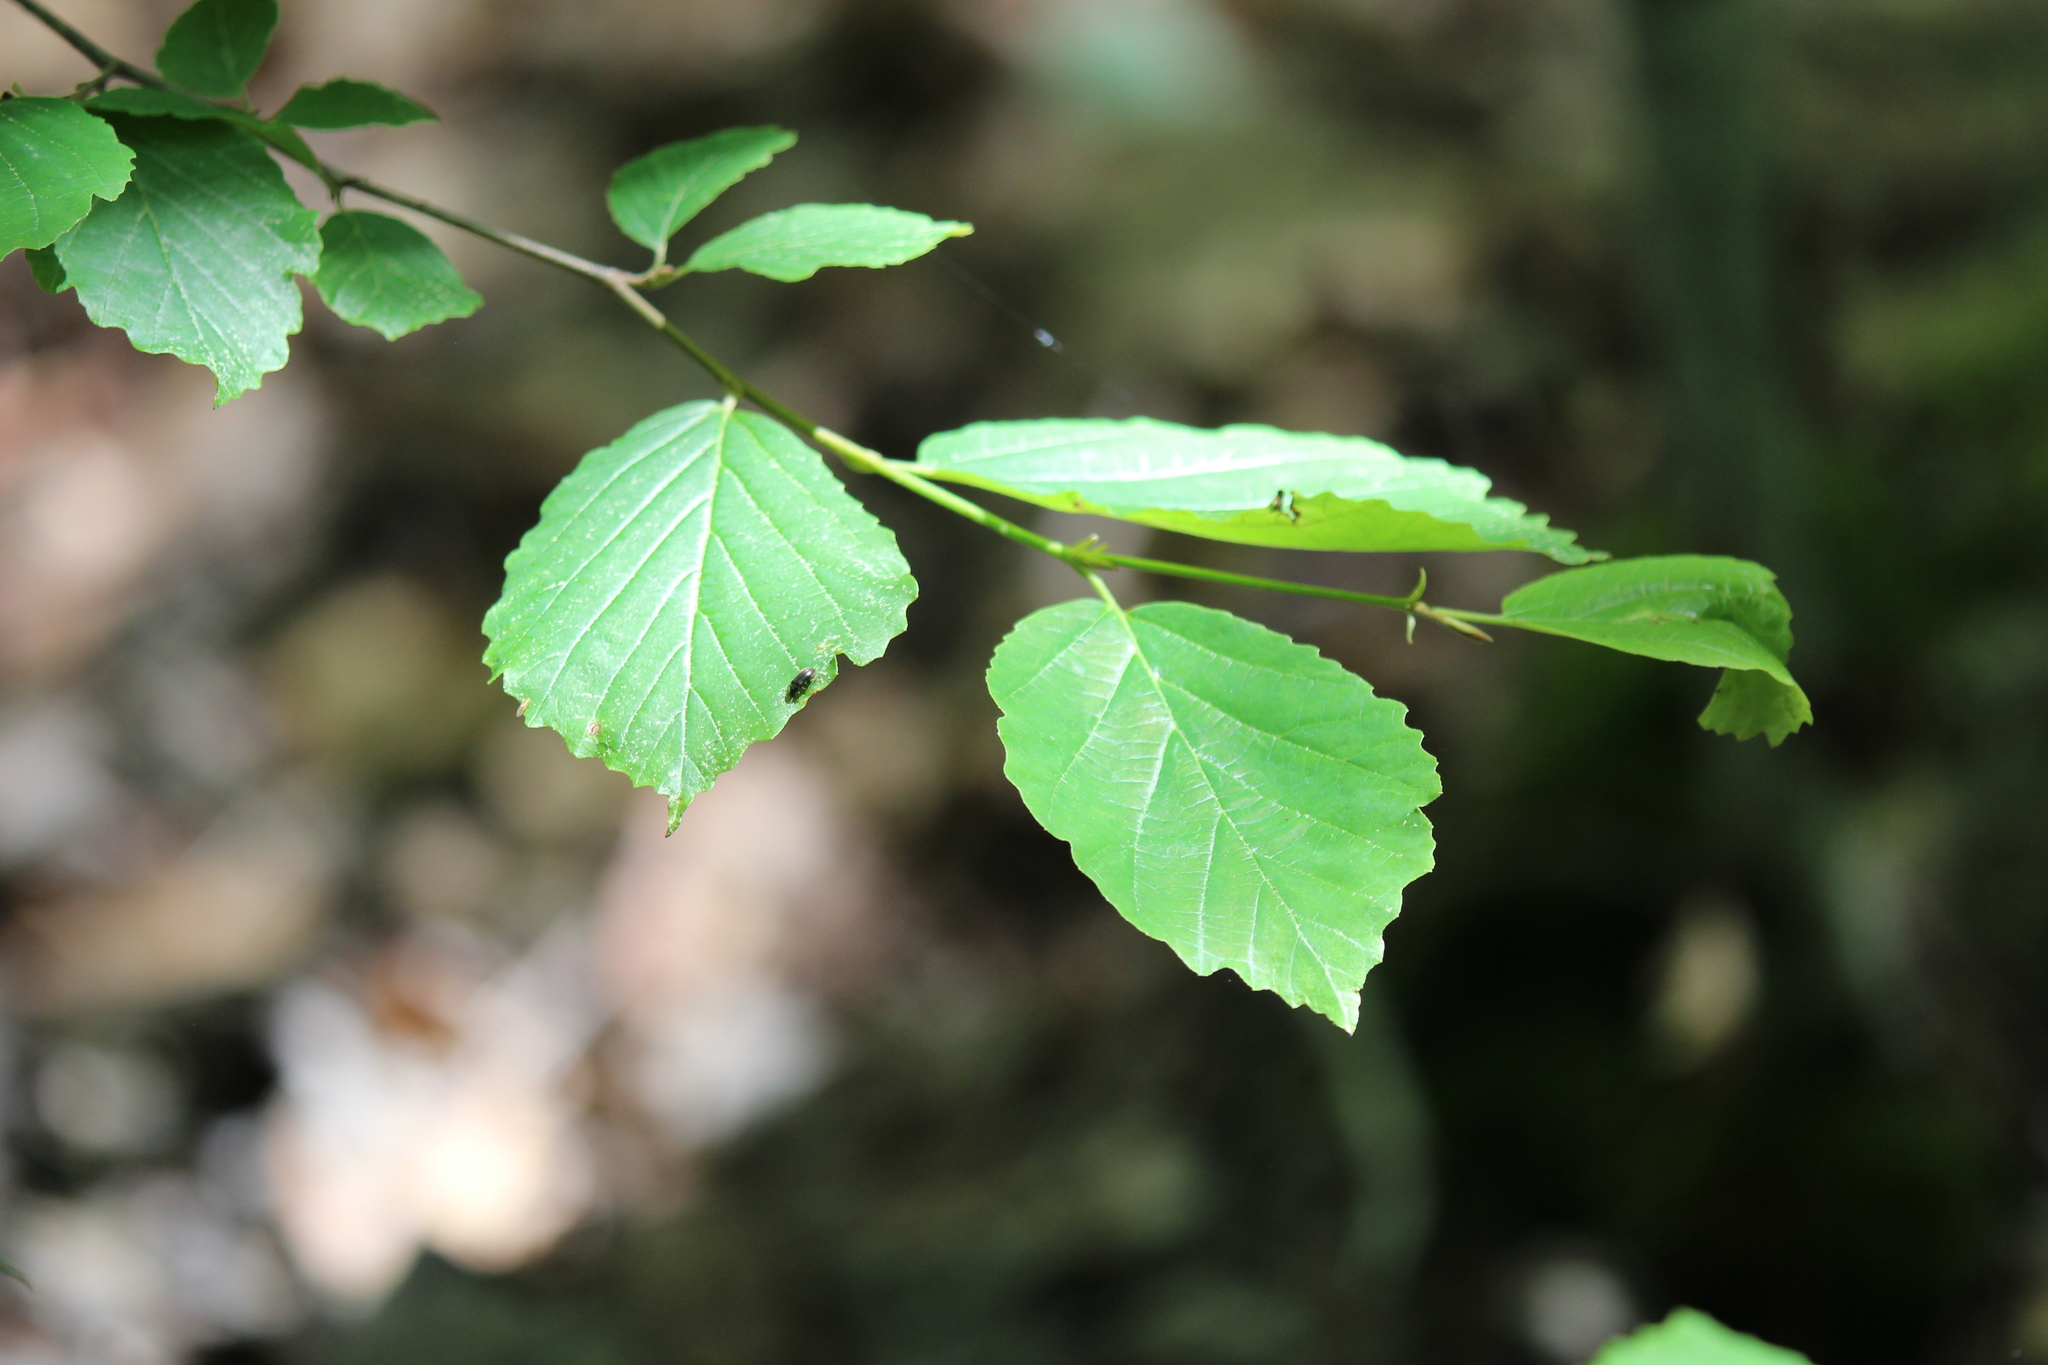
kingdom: Plantae
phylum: Tracheophyta
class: Magnoliopsida
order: Saxifragales
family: Hamamelidaceae
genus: Hamamelis
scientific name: Hamamelis virginiana
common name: Witch-hazel
